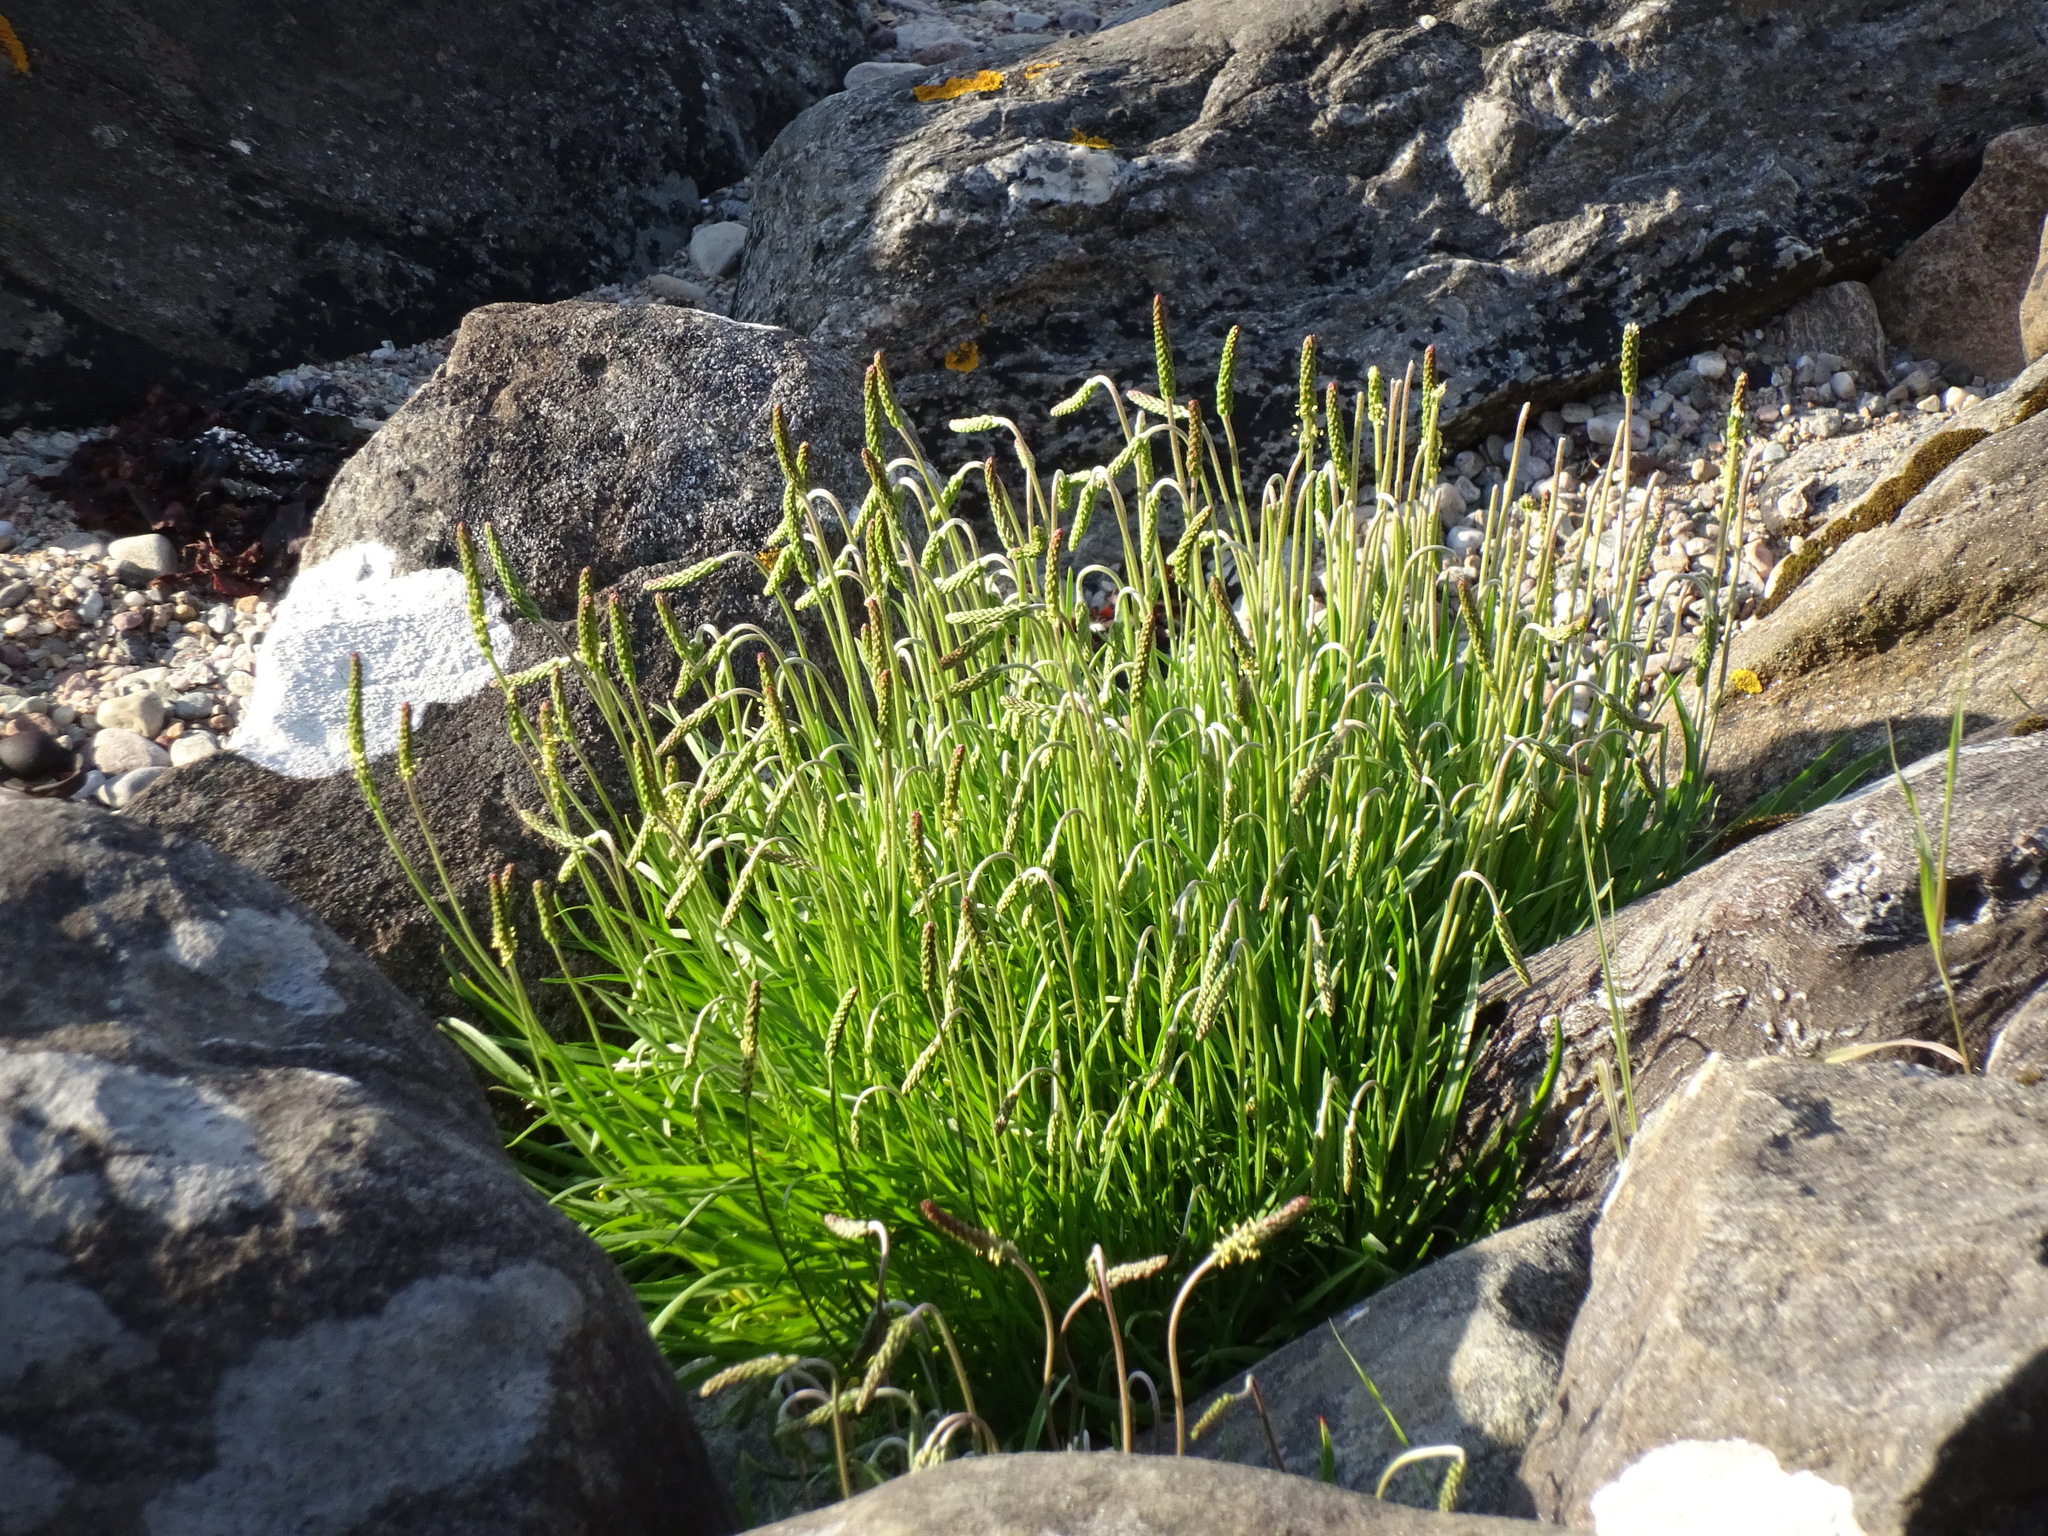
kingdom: Plantae
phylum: Tracheophyta
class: Magnoliopsida
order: Lamiales
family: Plantaginaceae
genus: Plantago
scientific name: Plantago maritima
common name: Sea plantain
